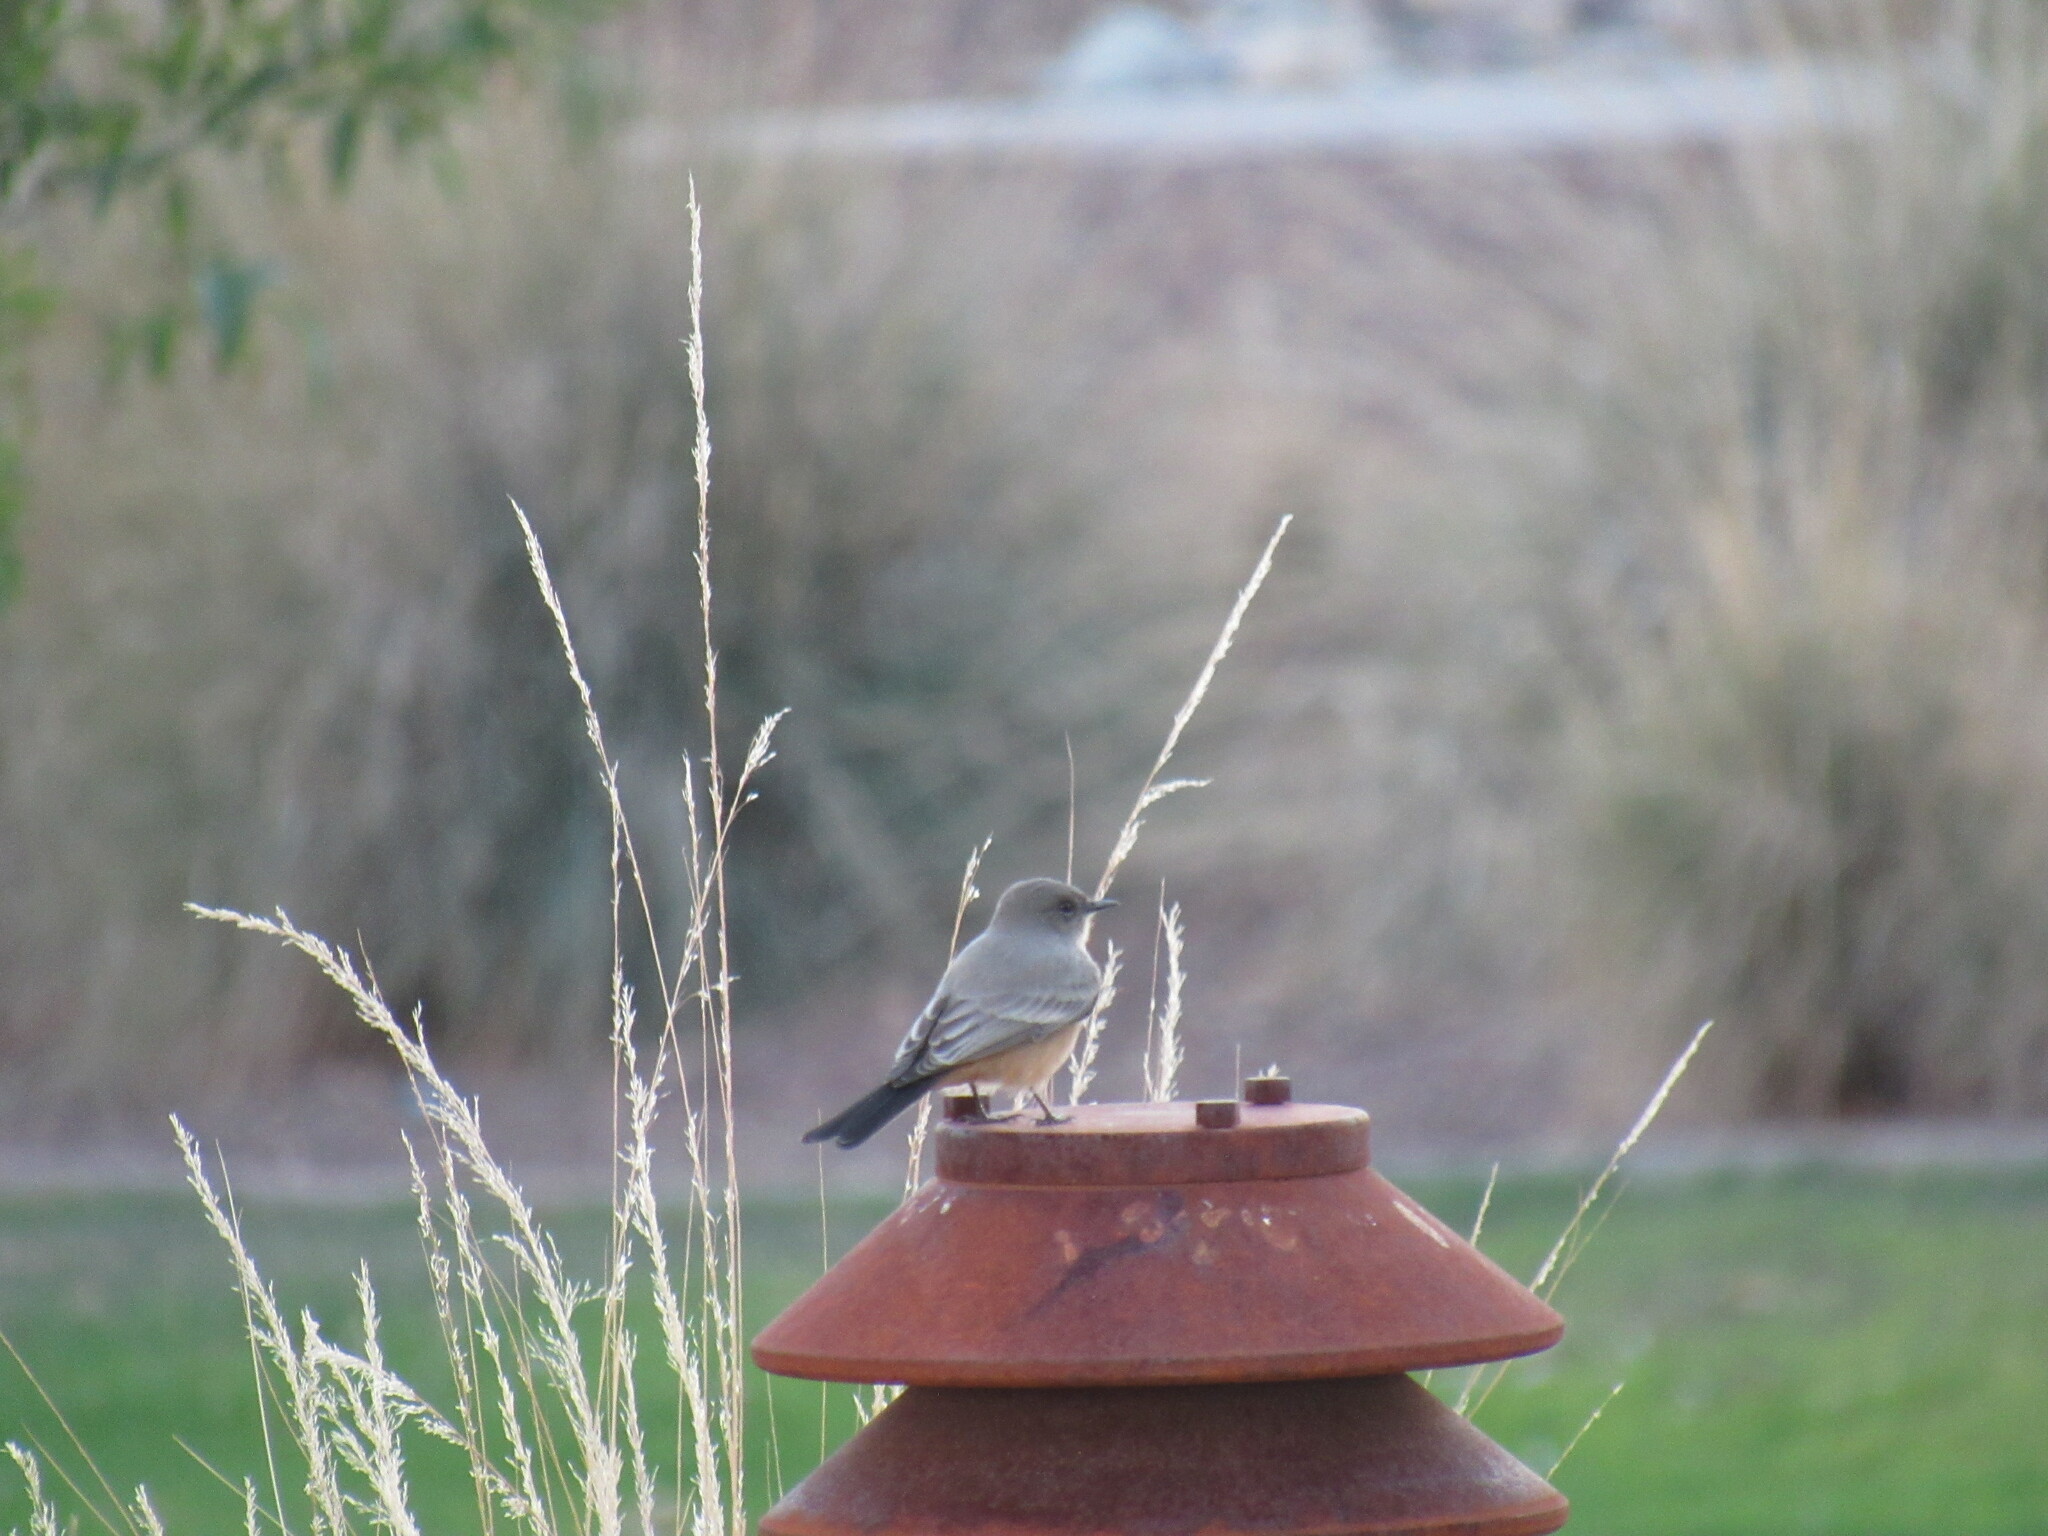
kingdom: Animalia
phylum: Chordata
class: Aves
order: Passeriformes
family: Tyrannidae
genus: Sayornis
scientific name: Sayornis saya
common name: Say's phoebe
